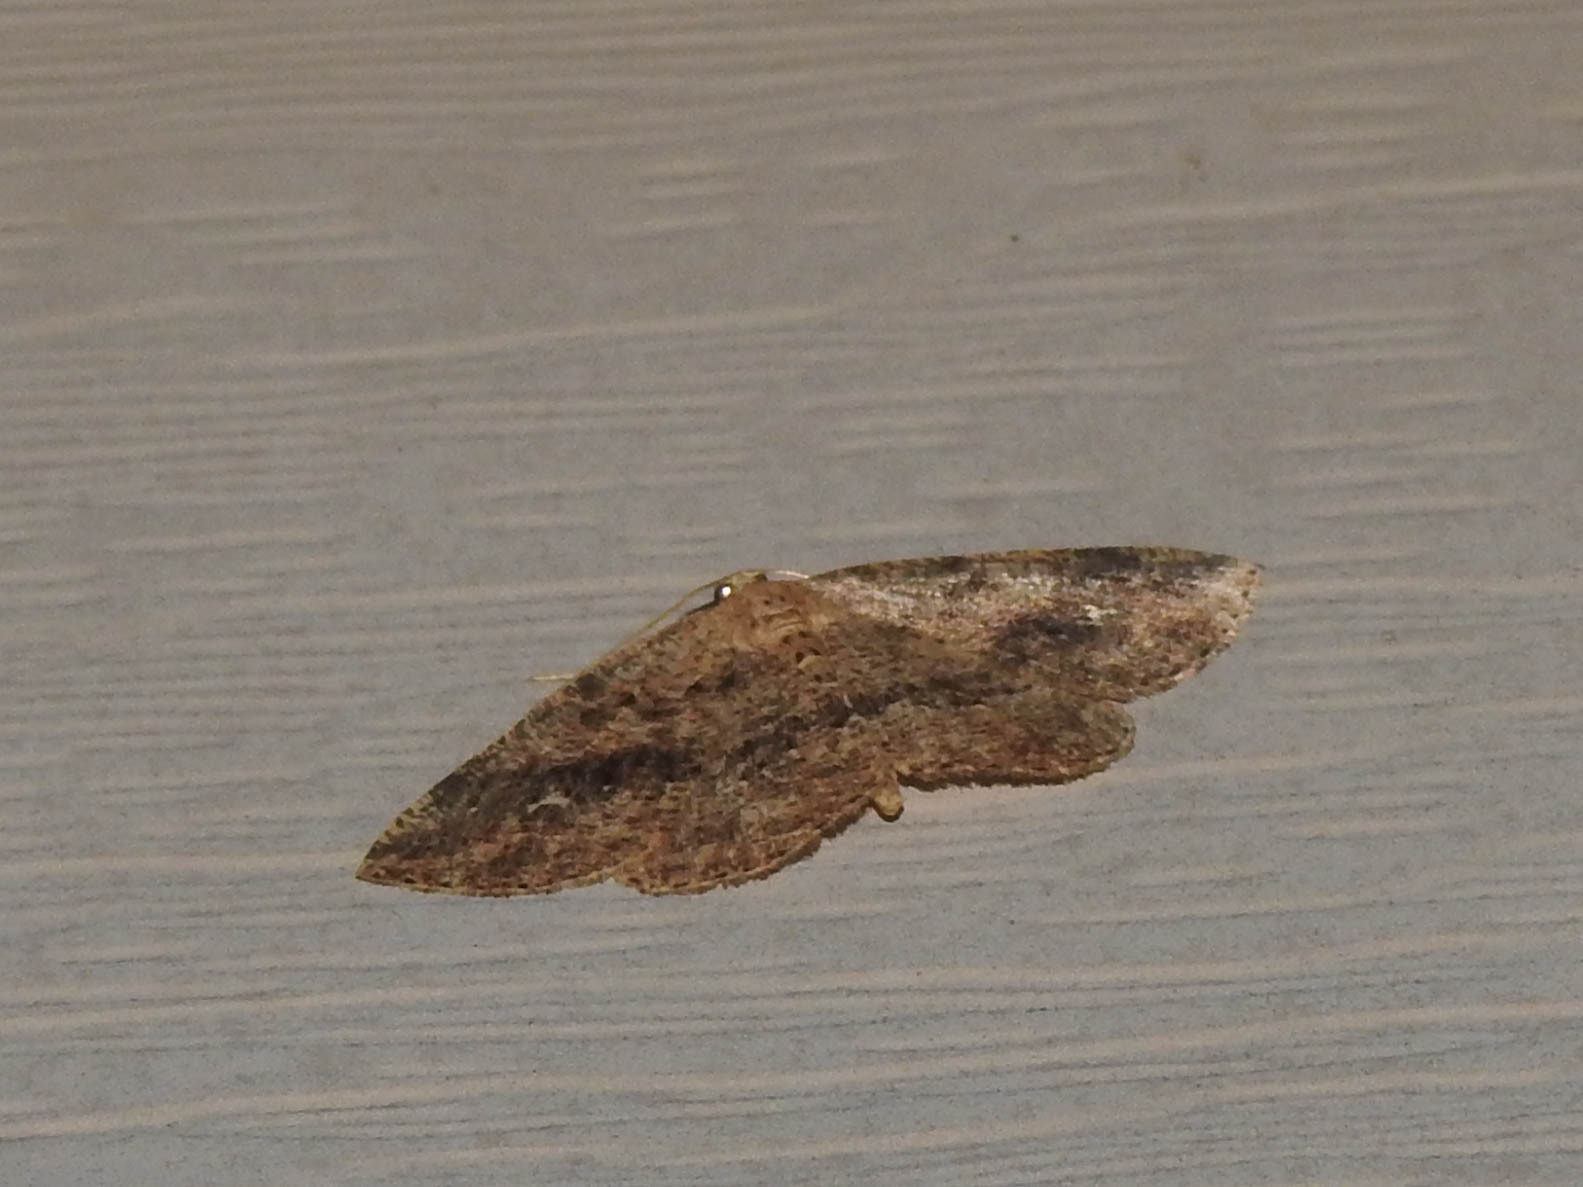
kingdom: Animalia
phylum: Arthropoda
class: Insecta
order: Lepidoptera
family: Geometridae
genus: Homochlodes
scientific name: Homochlodes fritillaria
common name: Pale homochlodes
